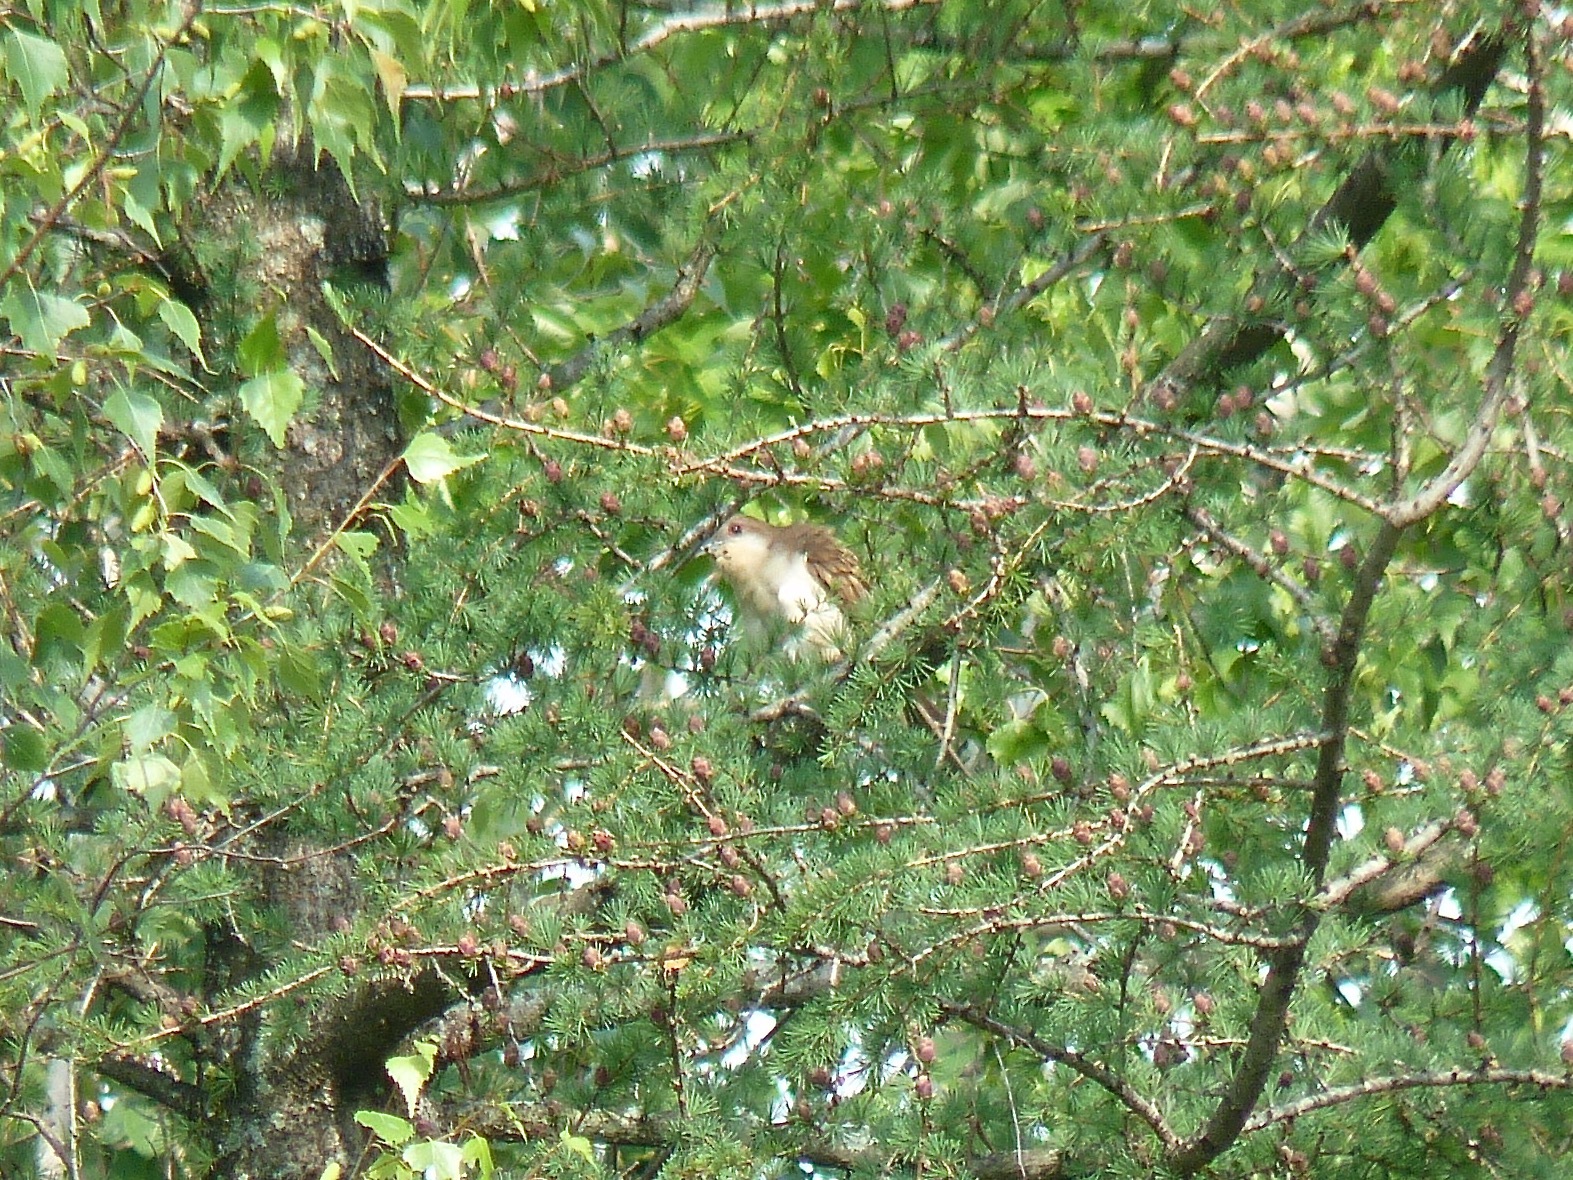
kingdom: Animalia
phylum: Chordata
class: Aves
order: Cuculiformes
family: Cuculidae
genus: Coccyzus
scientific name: Coccyzus erythropthalmus
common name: Black-billed cuckoo
